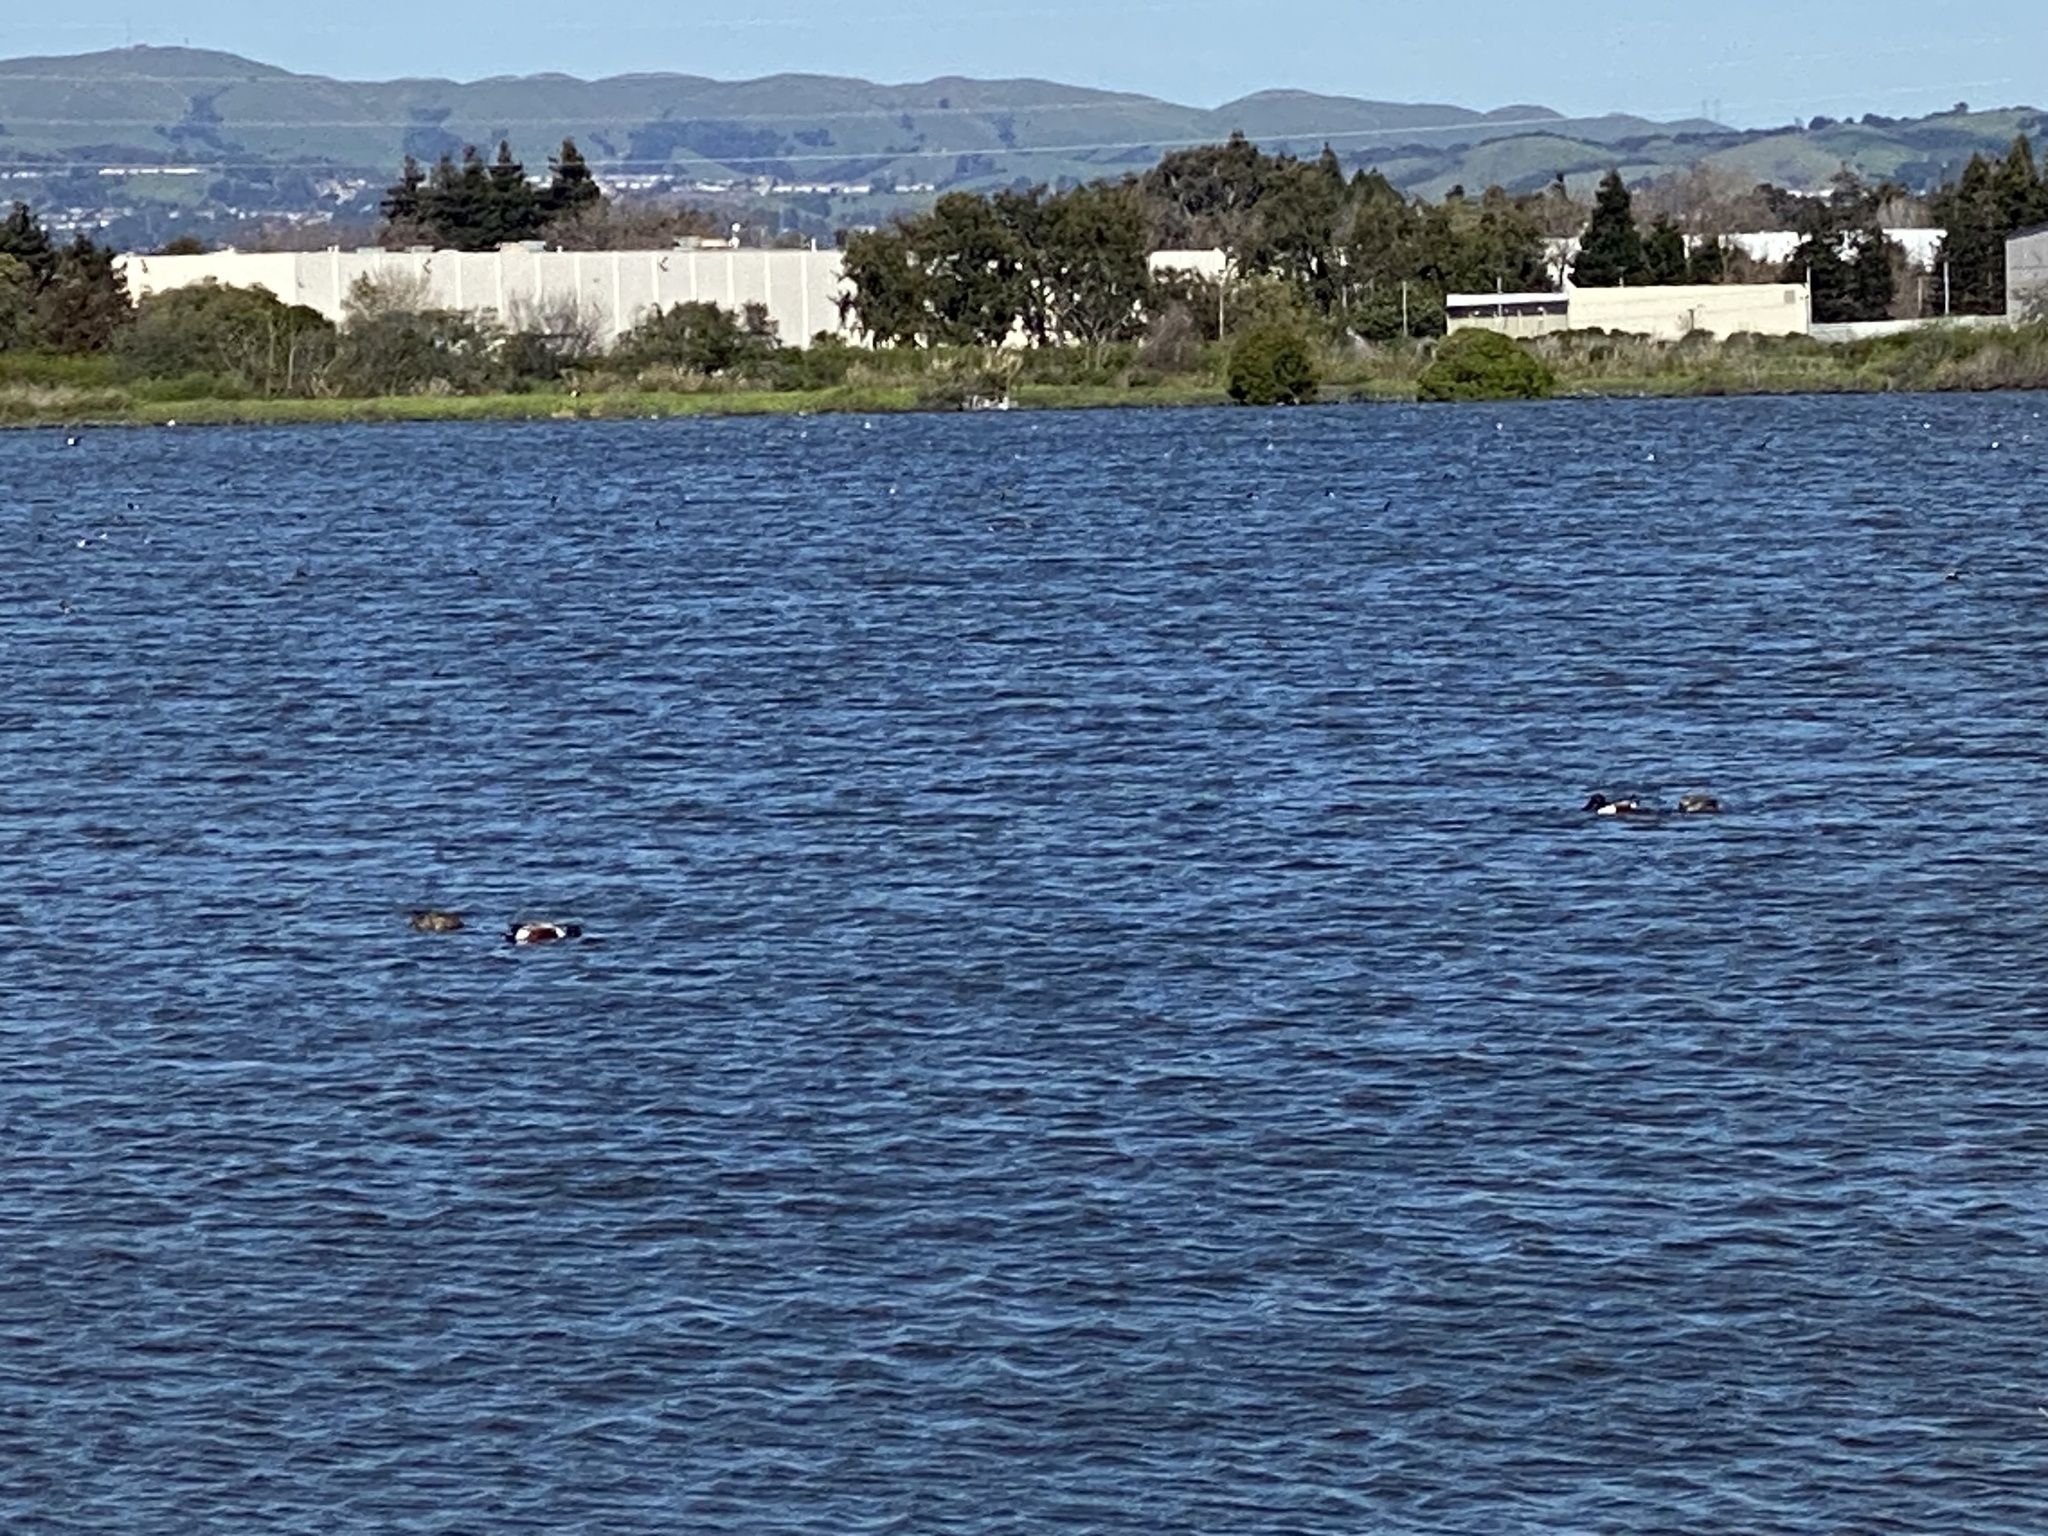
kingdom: Animalia
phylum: Chordata
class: Aves
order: Anseriformes
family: Anatidae
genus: Spatula
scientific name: Spatula clypeata
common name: Northern shoveler
